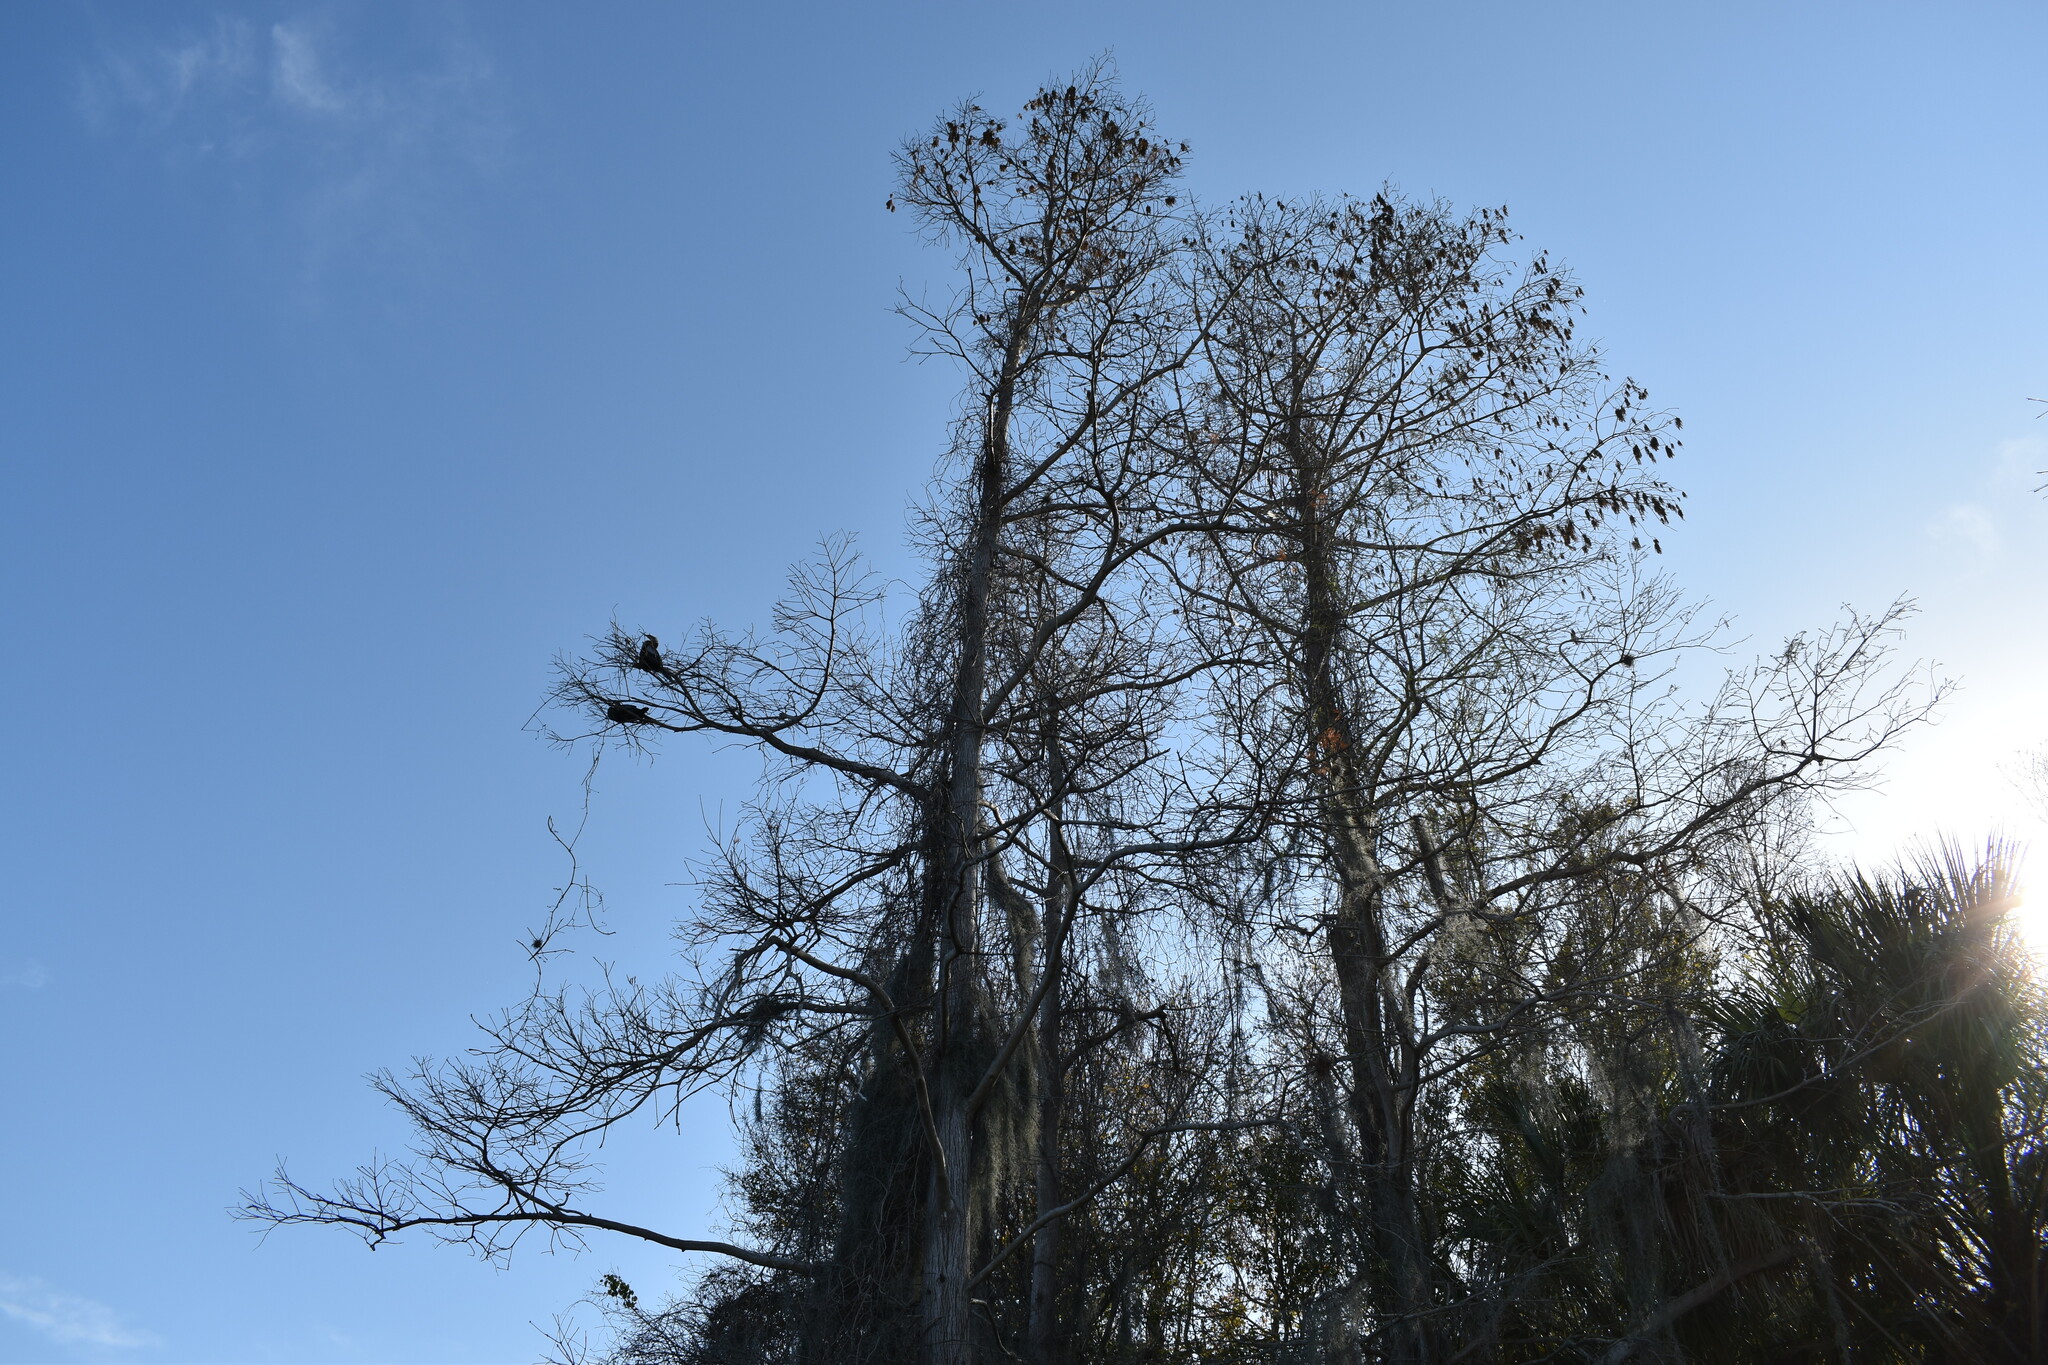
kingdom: Animalia
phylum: Chordata
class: Aves
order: Suliformes
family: Anhingidae
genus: Anhinga
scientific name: Anhinga anhinga
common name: Anhinga
